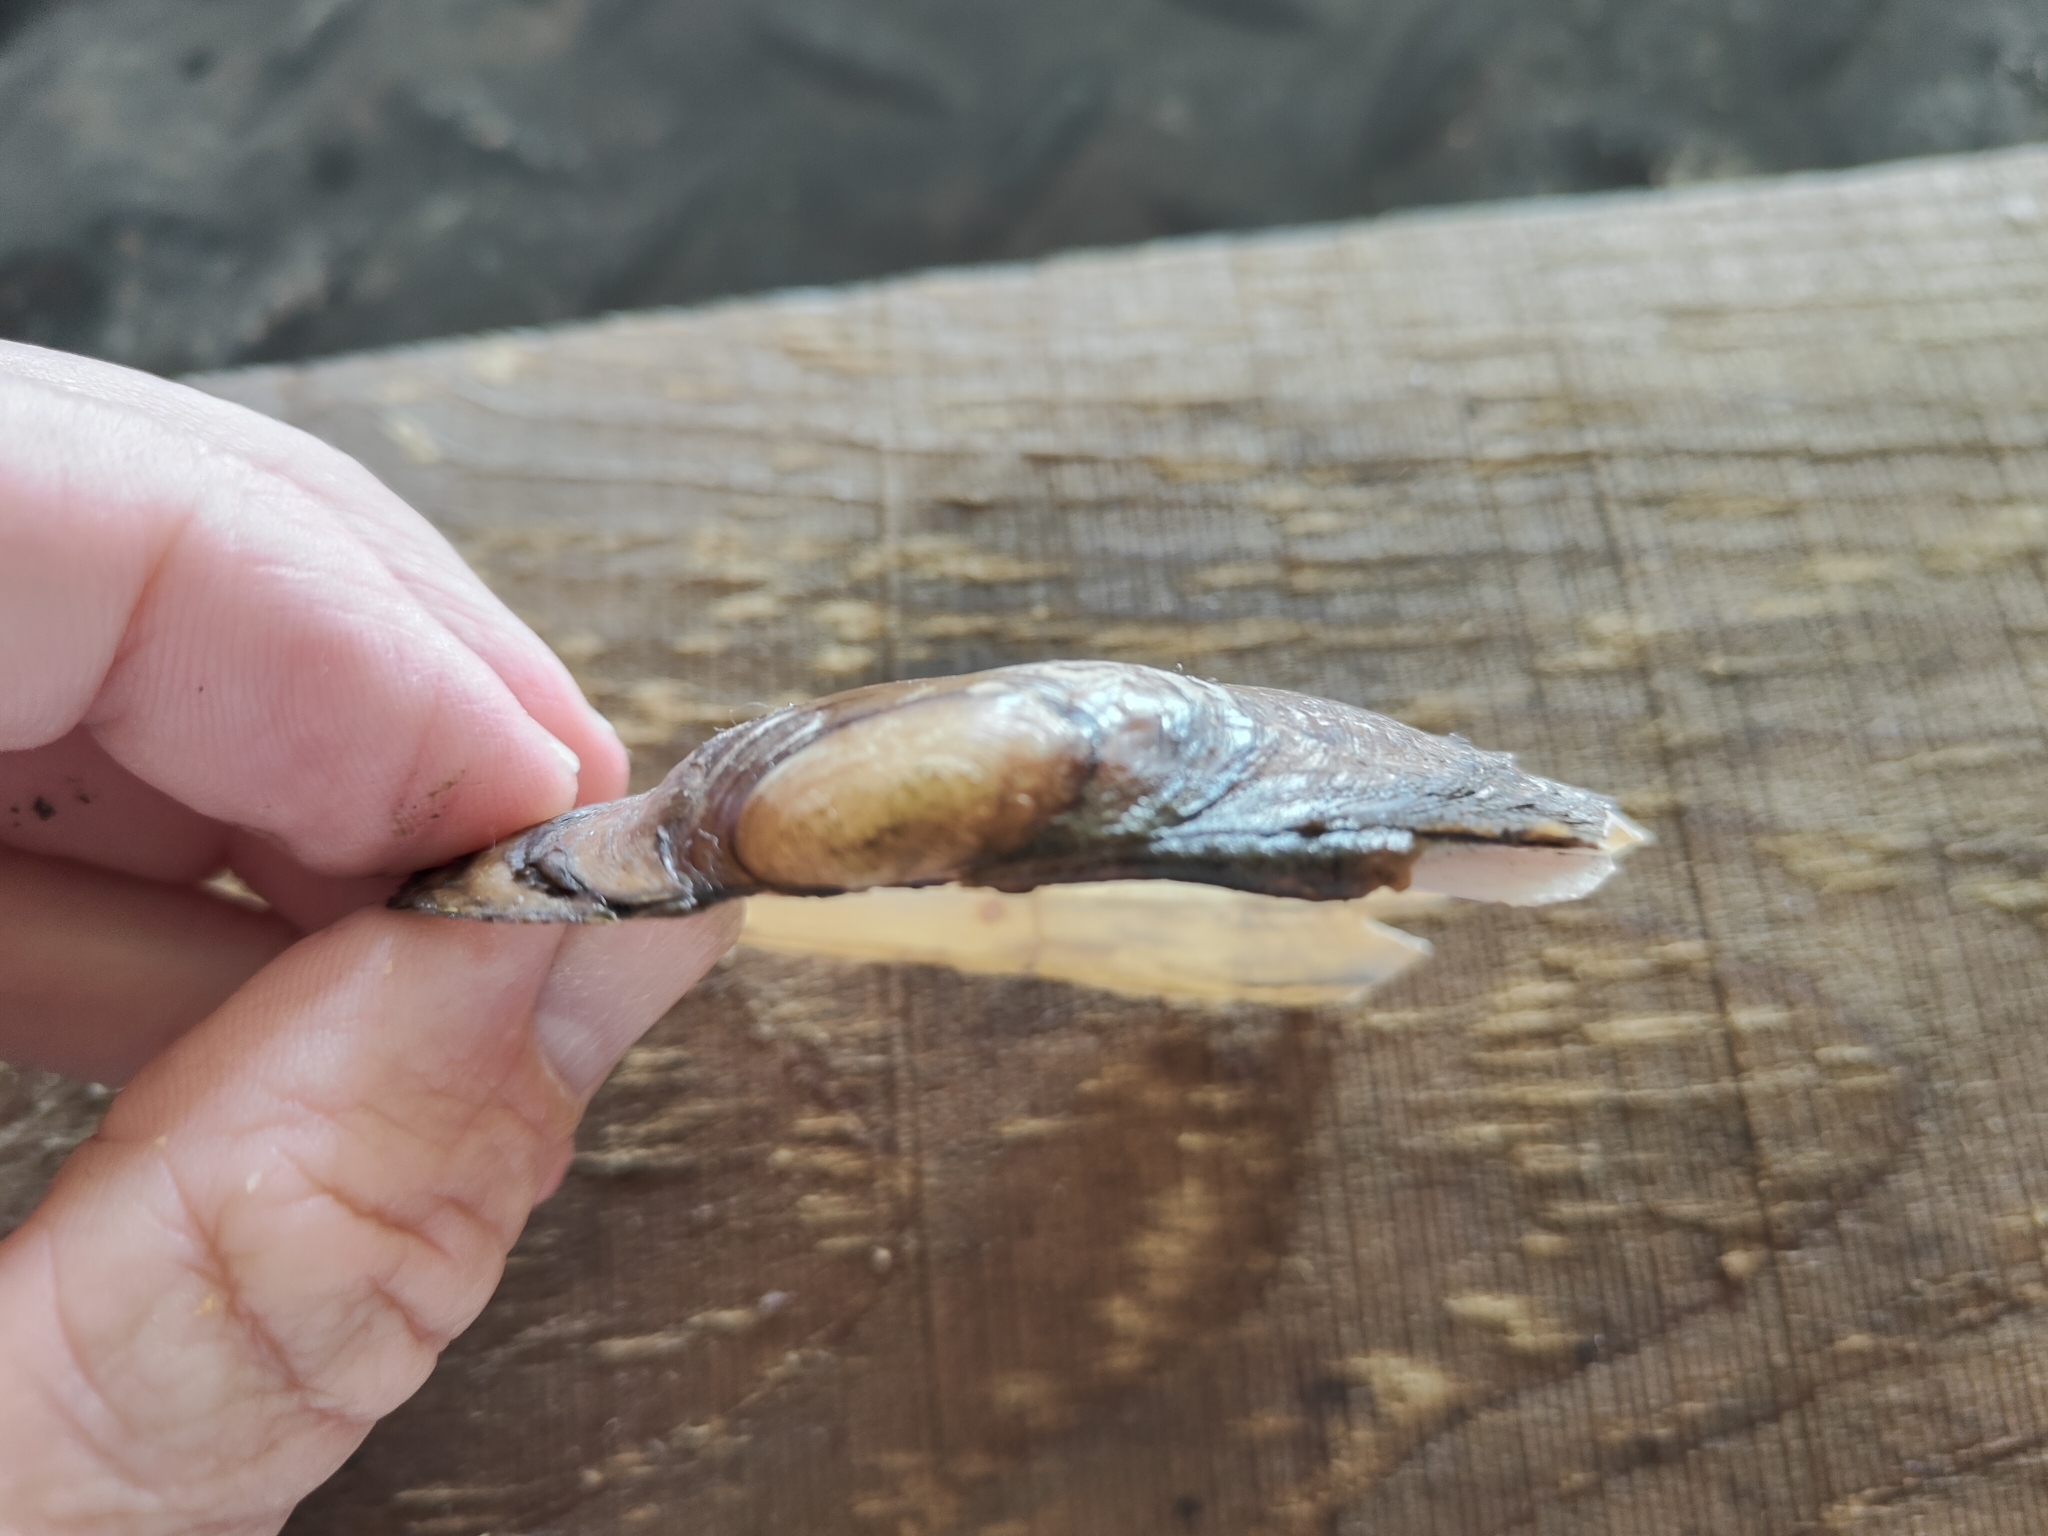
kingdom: Animalia
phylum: Mollusca
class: Bivalvia
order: Unionida
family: Unionidae
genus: Potamilus
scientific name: Potamilus fragilis
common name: Fragile papershell
